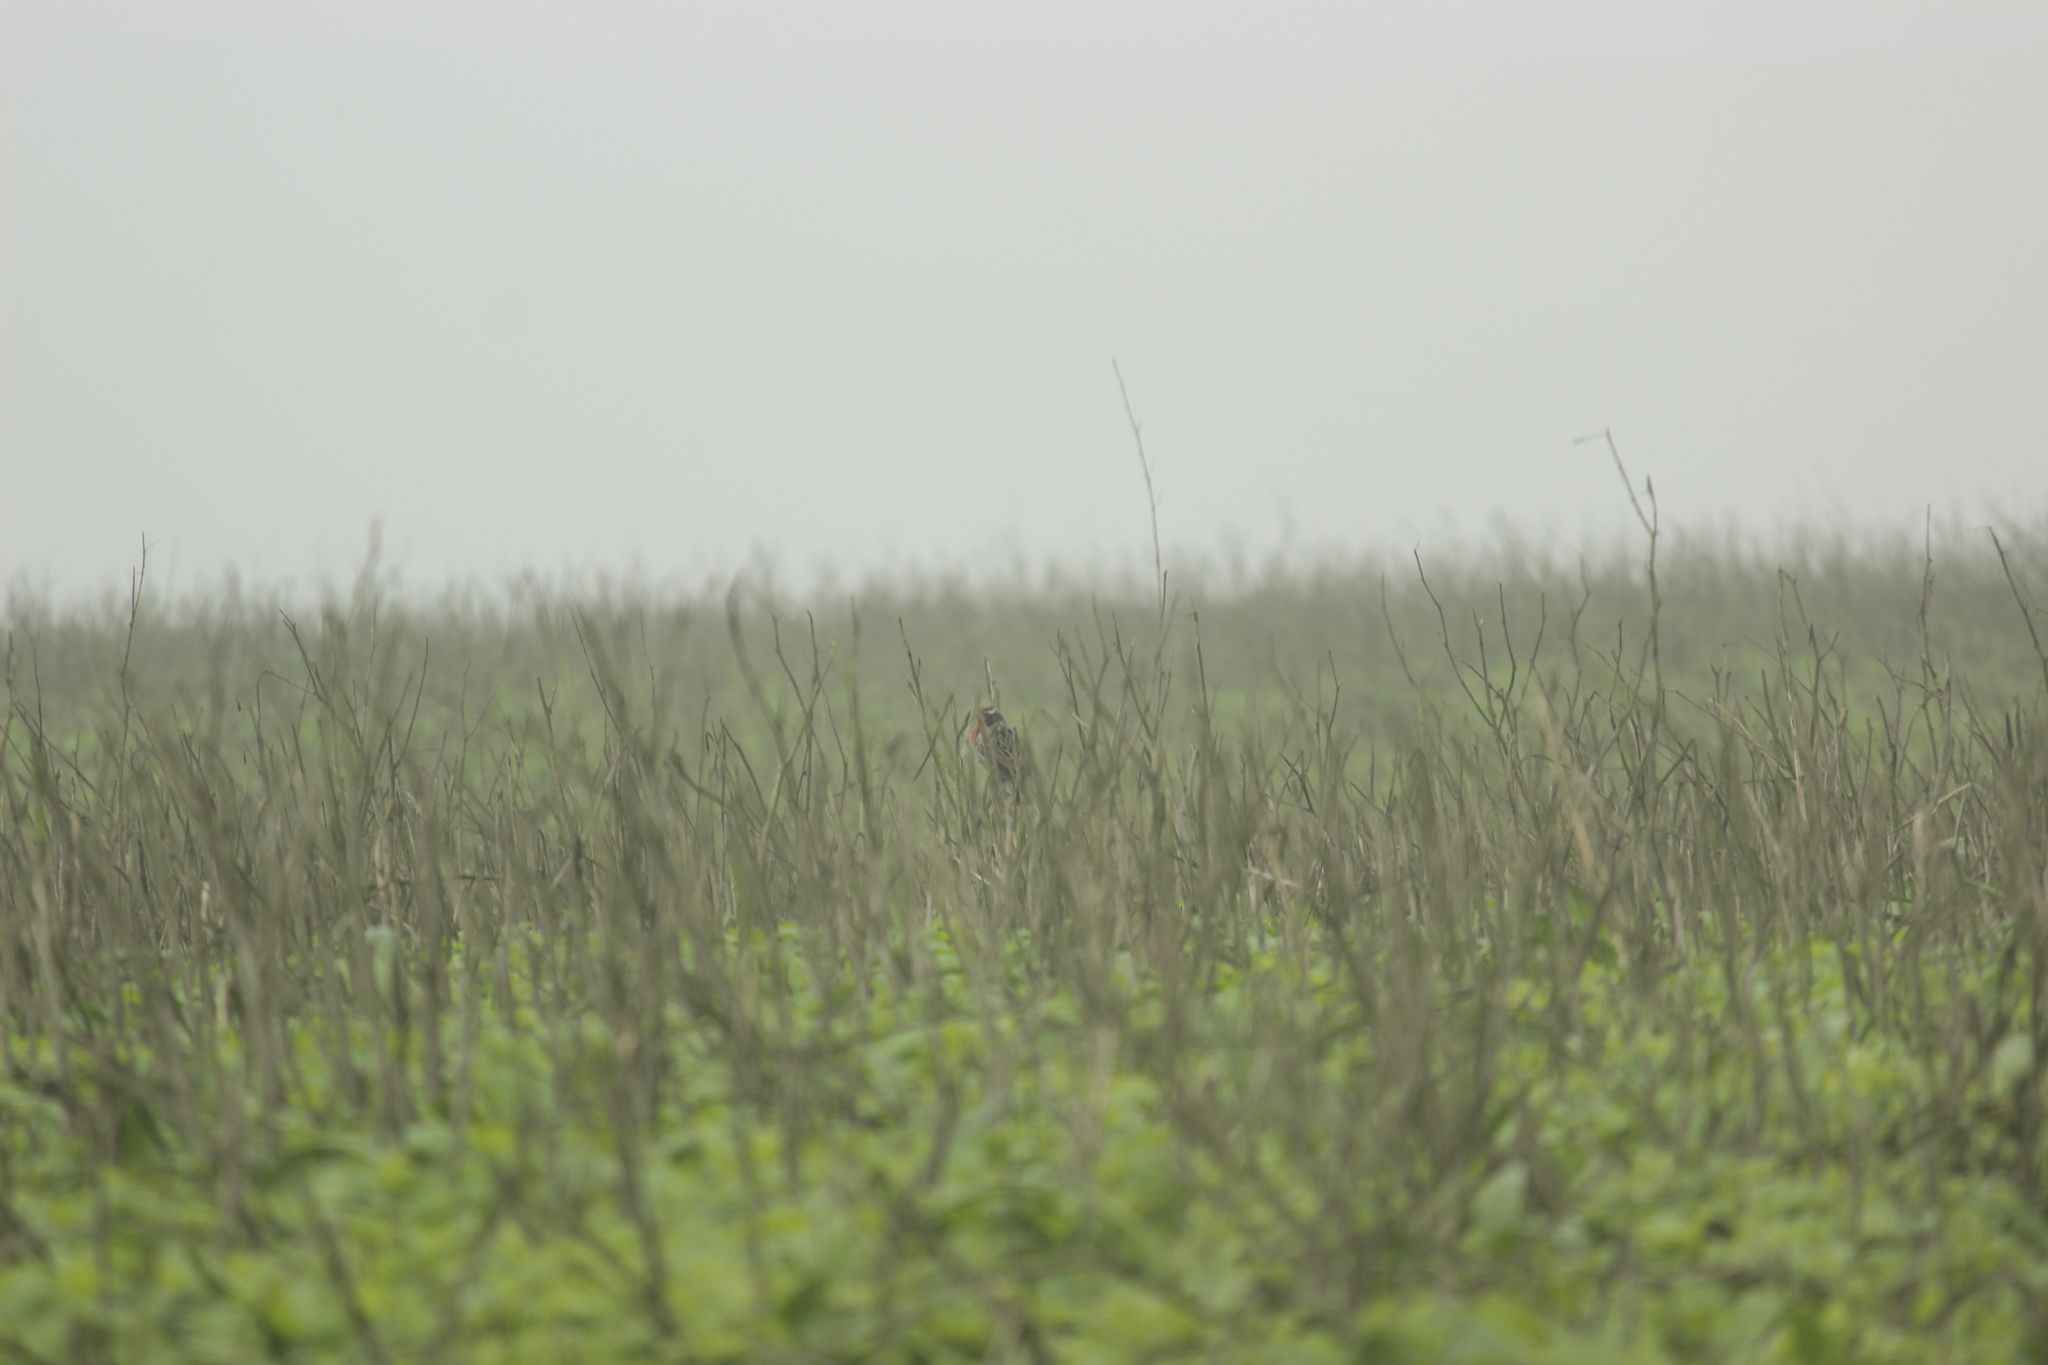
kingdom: Animalia
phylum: Chordata
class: Aves
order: Passeriformes
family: Icteridae
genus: Sturnella
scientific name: Sturnella bellicosa
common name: Peruvian meadowlark
